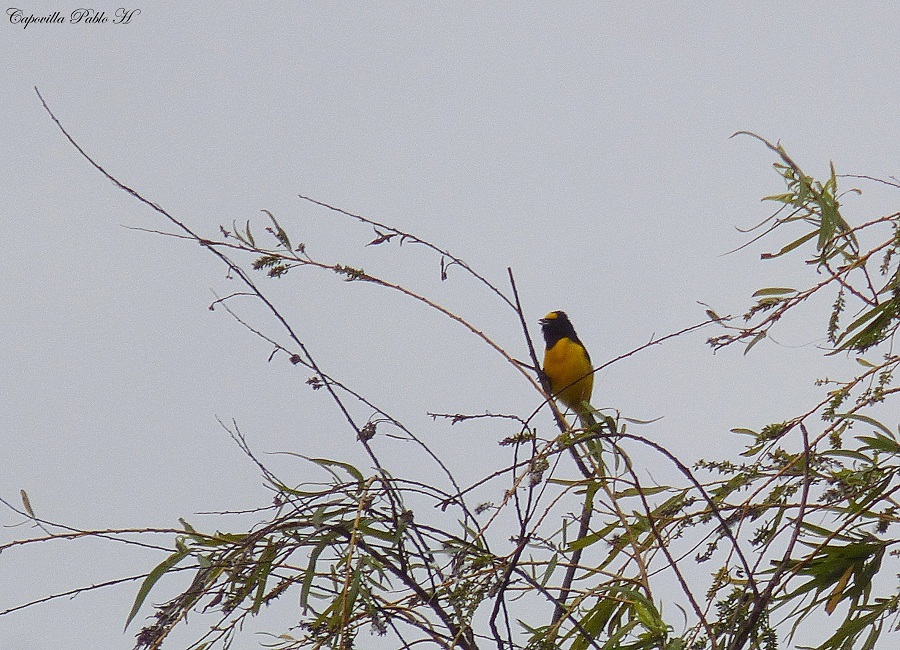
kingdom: Animalia
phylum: Chordata
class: Aves
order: Passeriformes
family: Fringillidae
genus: Euphonia
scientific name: Euphonia chlorotica
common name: Purple-throated euphonia
